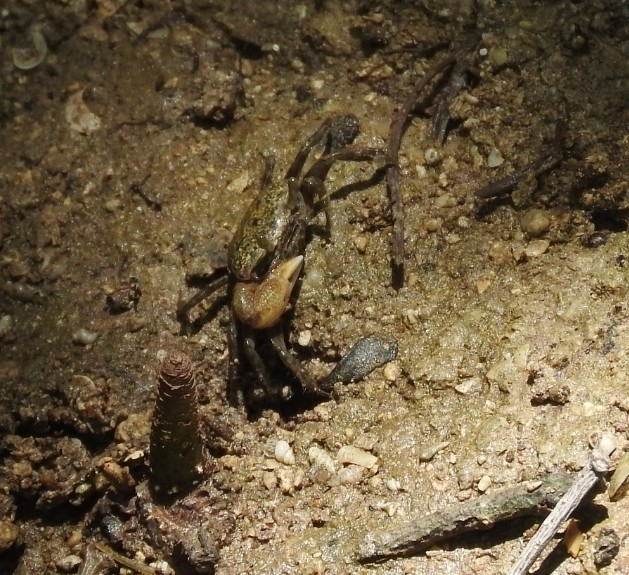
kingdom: Animalia
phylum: Arthropoda
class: Malacostraca
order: Decapoda
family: Ocypodidae
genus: Minuca
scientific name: Minuca burgersi
